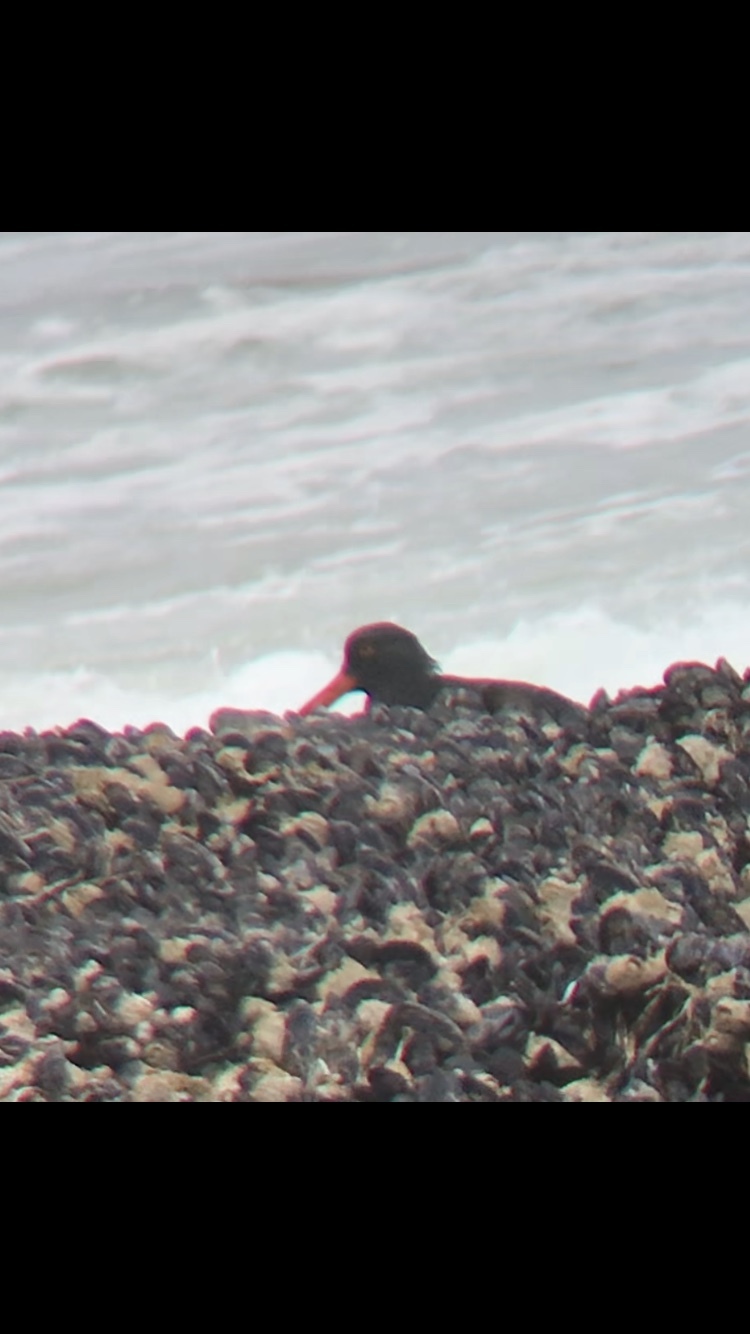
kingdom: Animalia
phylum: Chordata
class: Aves
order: Charadriiformes
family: Haematopodidae
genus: Haematopus
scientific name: Haematopus bachmani
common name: Black oystercatcher
